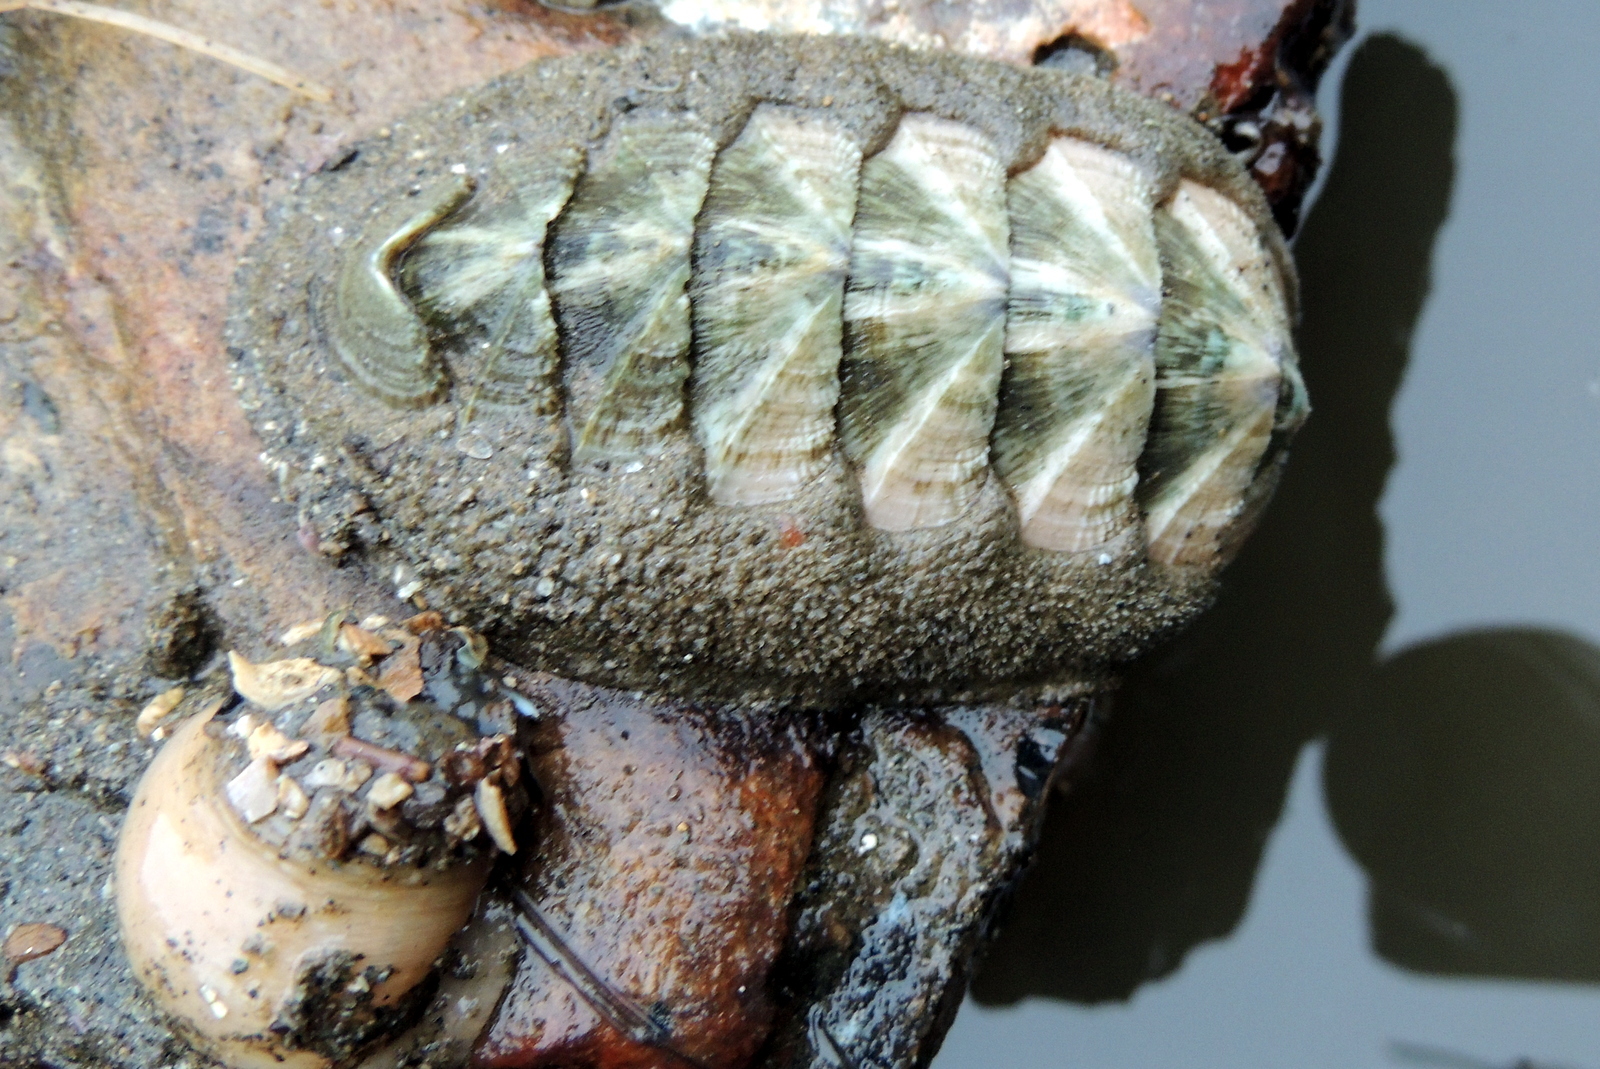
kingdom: Animalia
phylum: Mollusca
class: Polyplacophora
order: Chitonida
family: Ischnochitonidae
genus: Stenoplax
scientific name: Stenoplax conspicua
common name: Conspicuous chiton
